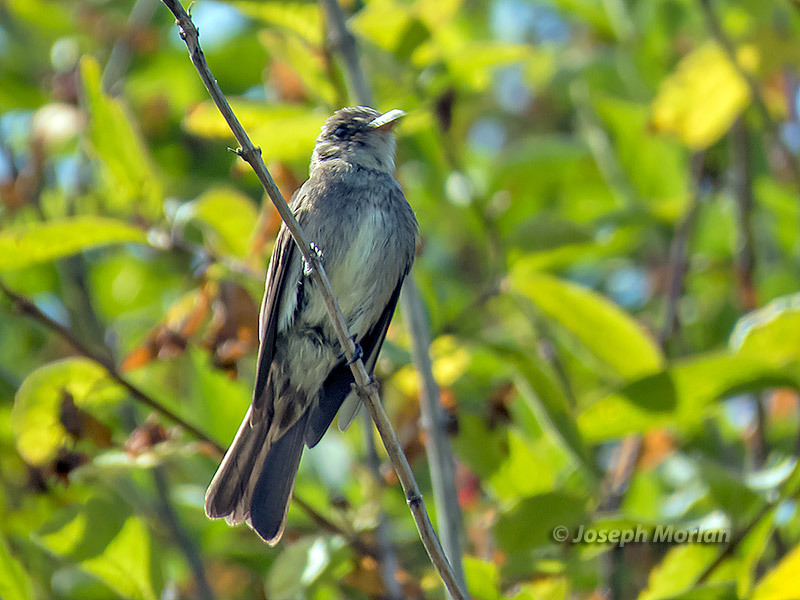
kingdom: Animalia
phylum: Chordata
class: Aves
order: Passeriformes
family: Tyrannidae
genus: Contopus
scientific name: Contopus cooperi
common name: Olive-sided flycatcher
